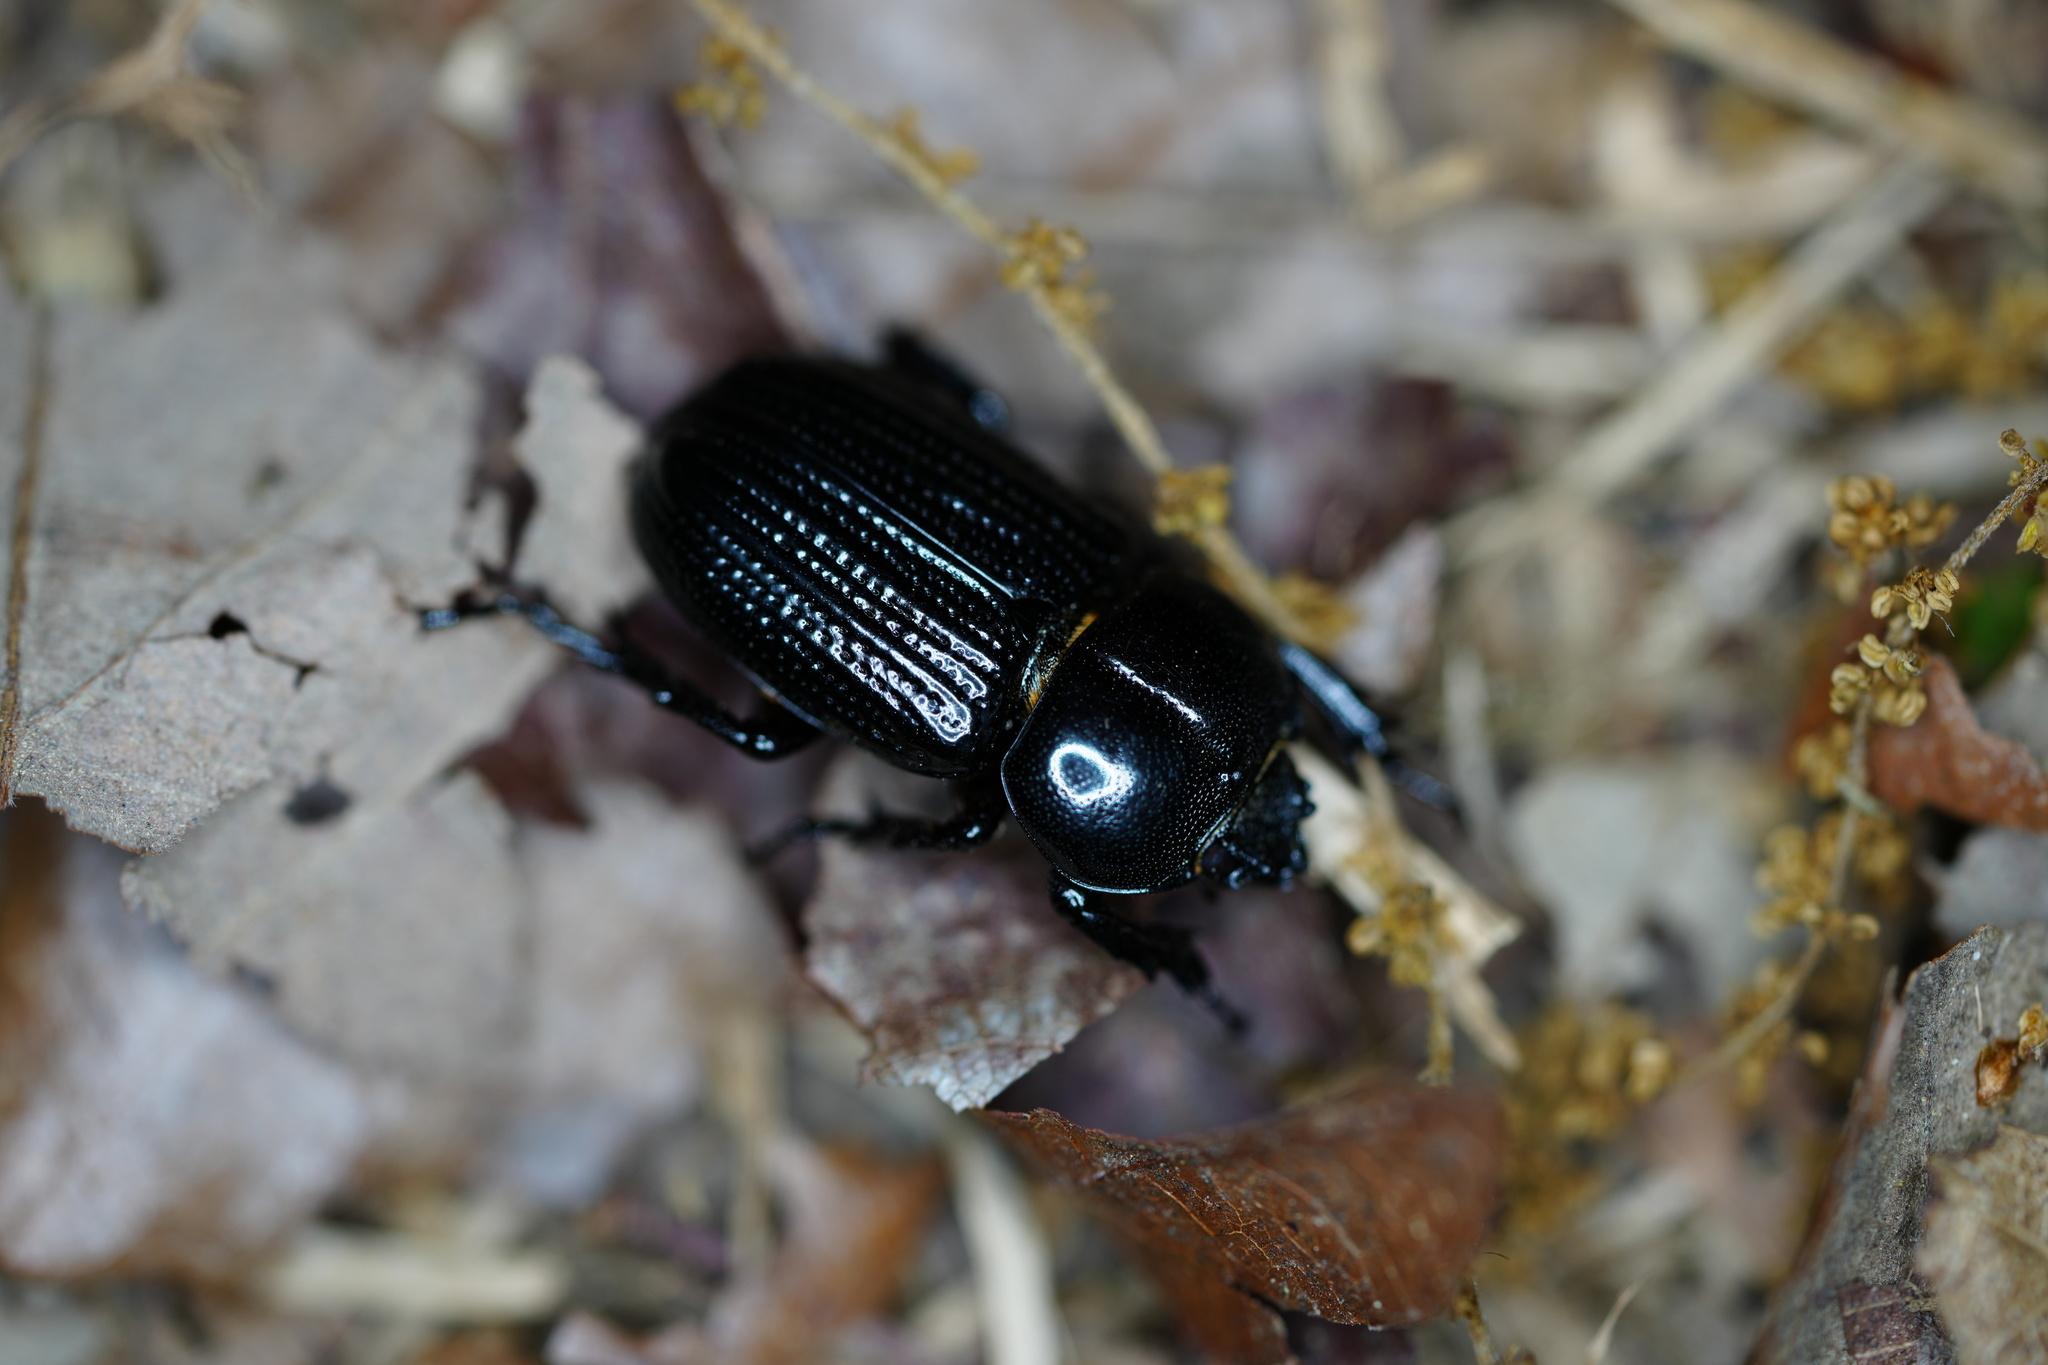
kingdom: Animalia
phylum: Arthropoda
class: Insecta
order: Coleoptera
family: Scarabaeidae
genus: Phileurus
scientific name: Phileurus valgus
